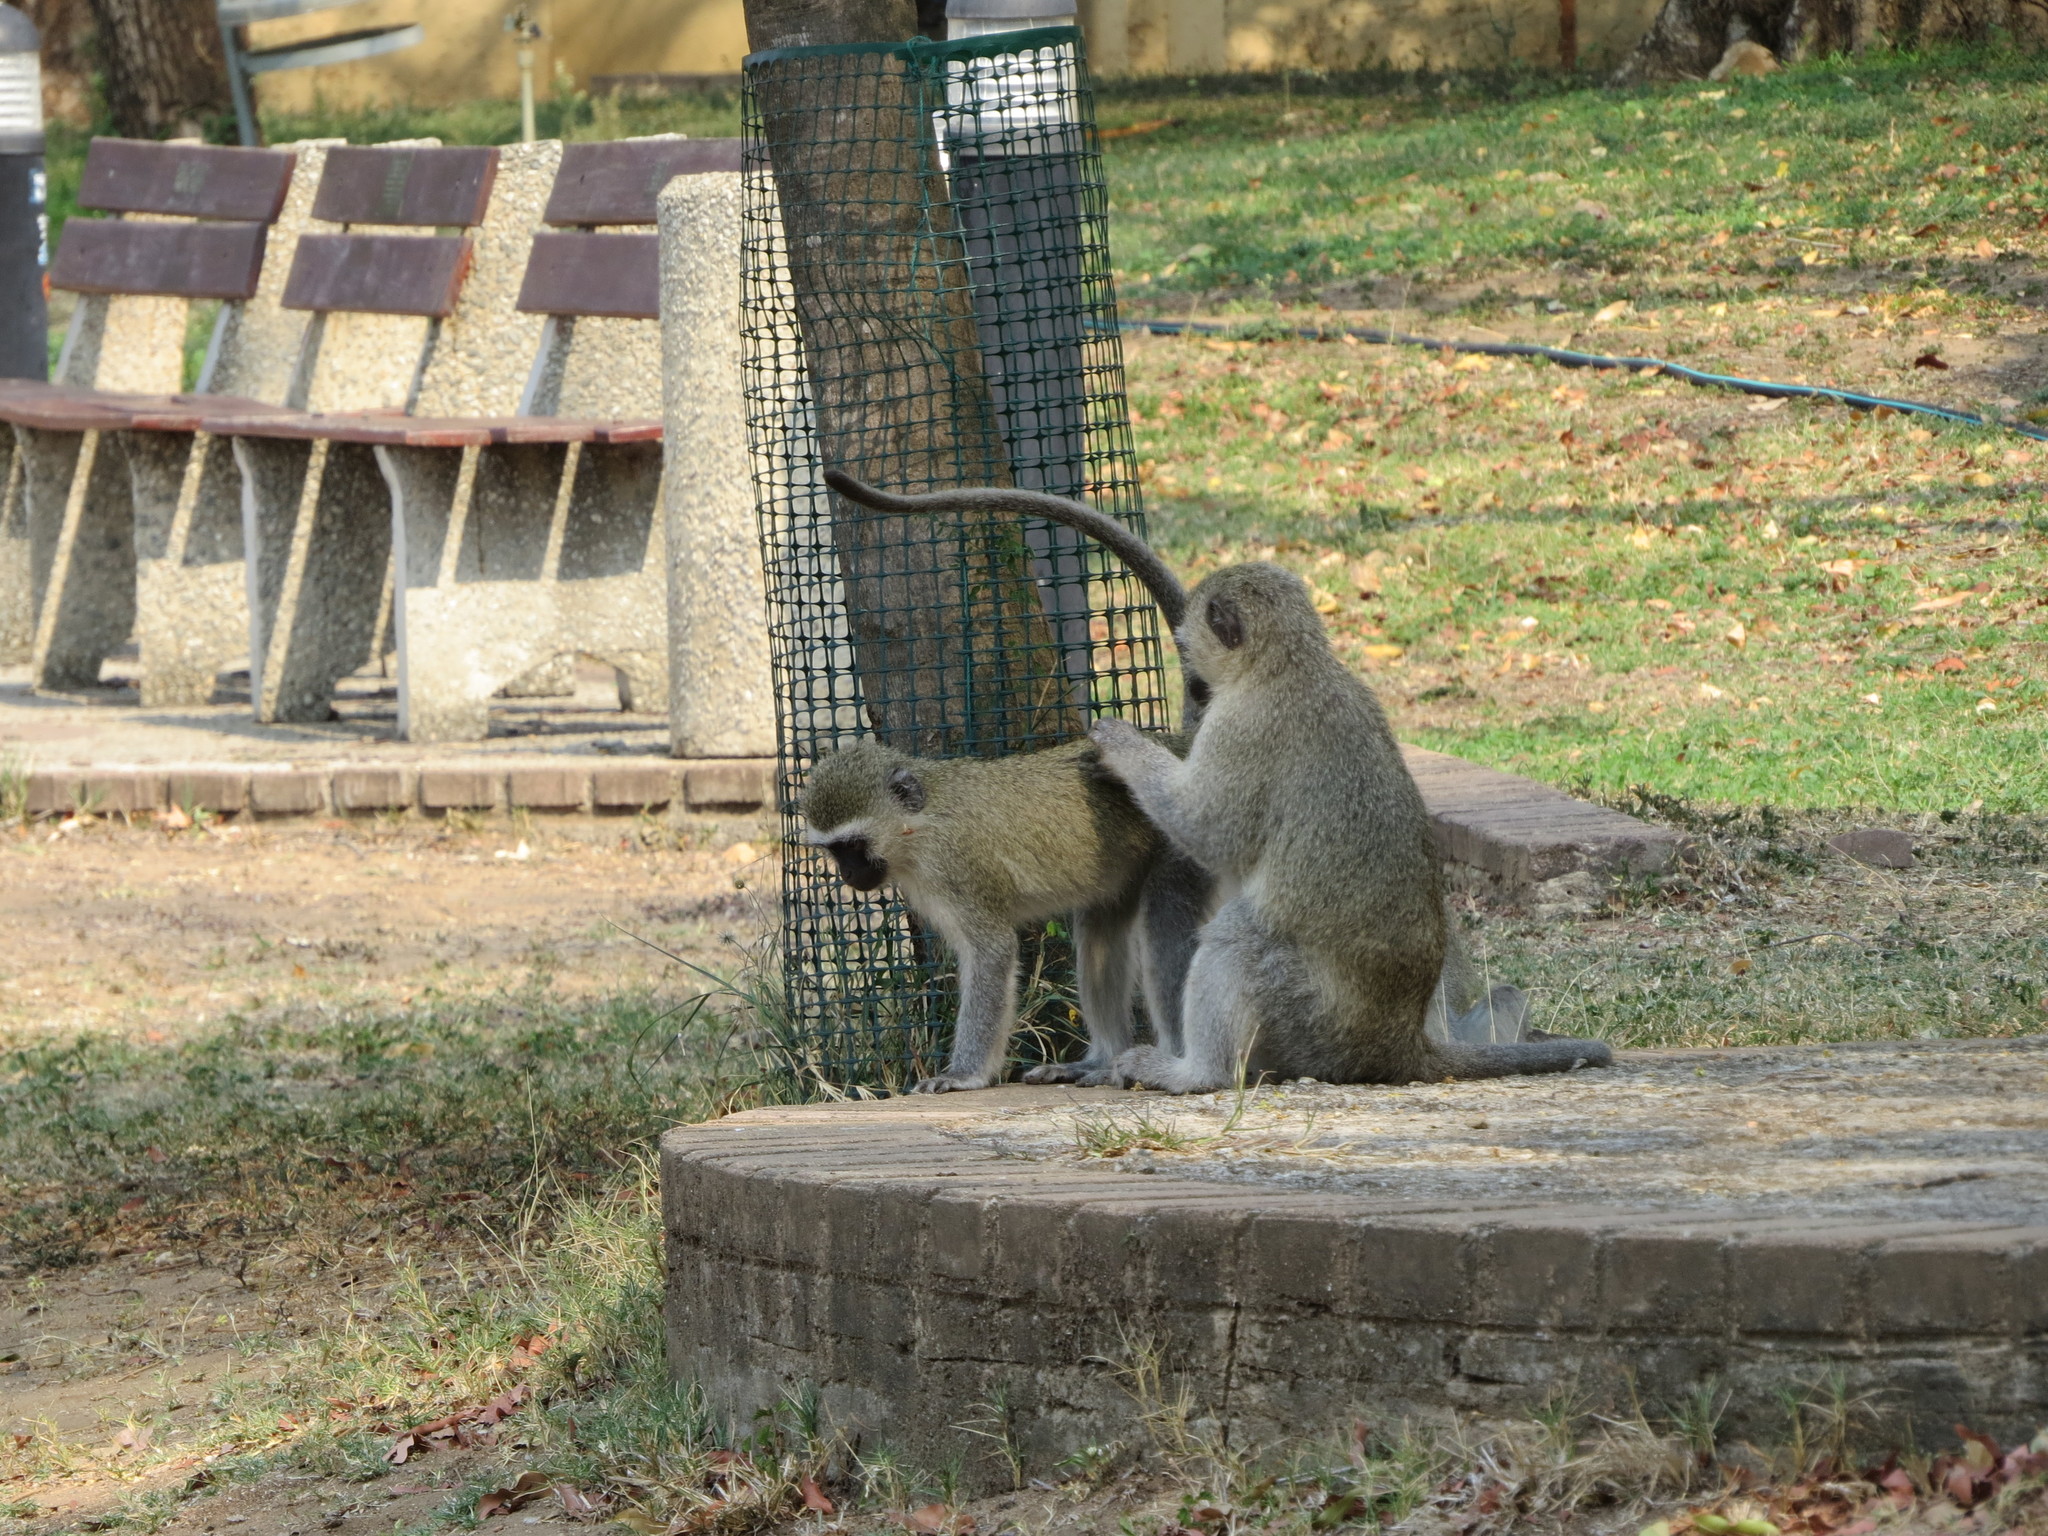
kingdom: Animalia
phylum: Chordata
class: Mammalia
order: Primates
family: Cercopithecidae
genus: Chlorocebus
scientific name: Chlorocebus pygerythrus
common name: Vervet monkey
